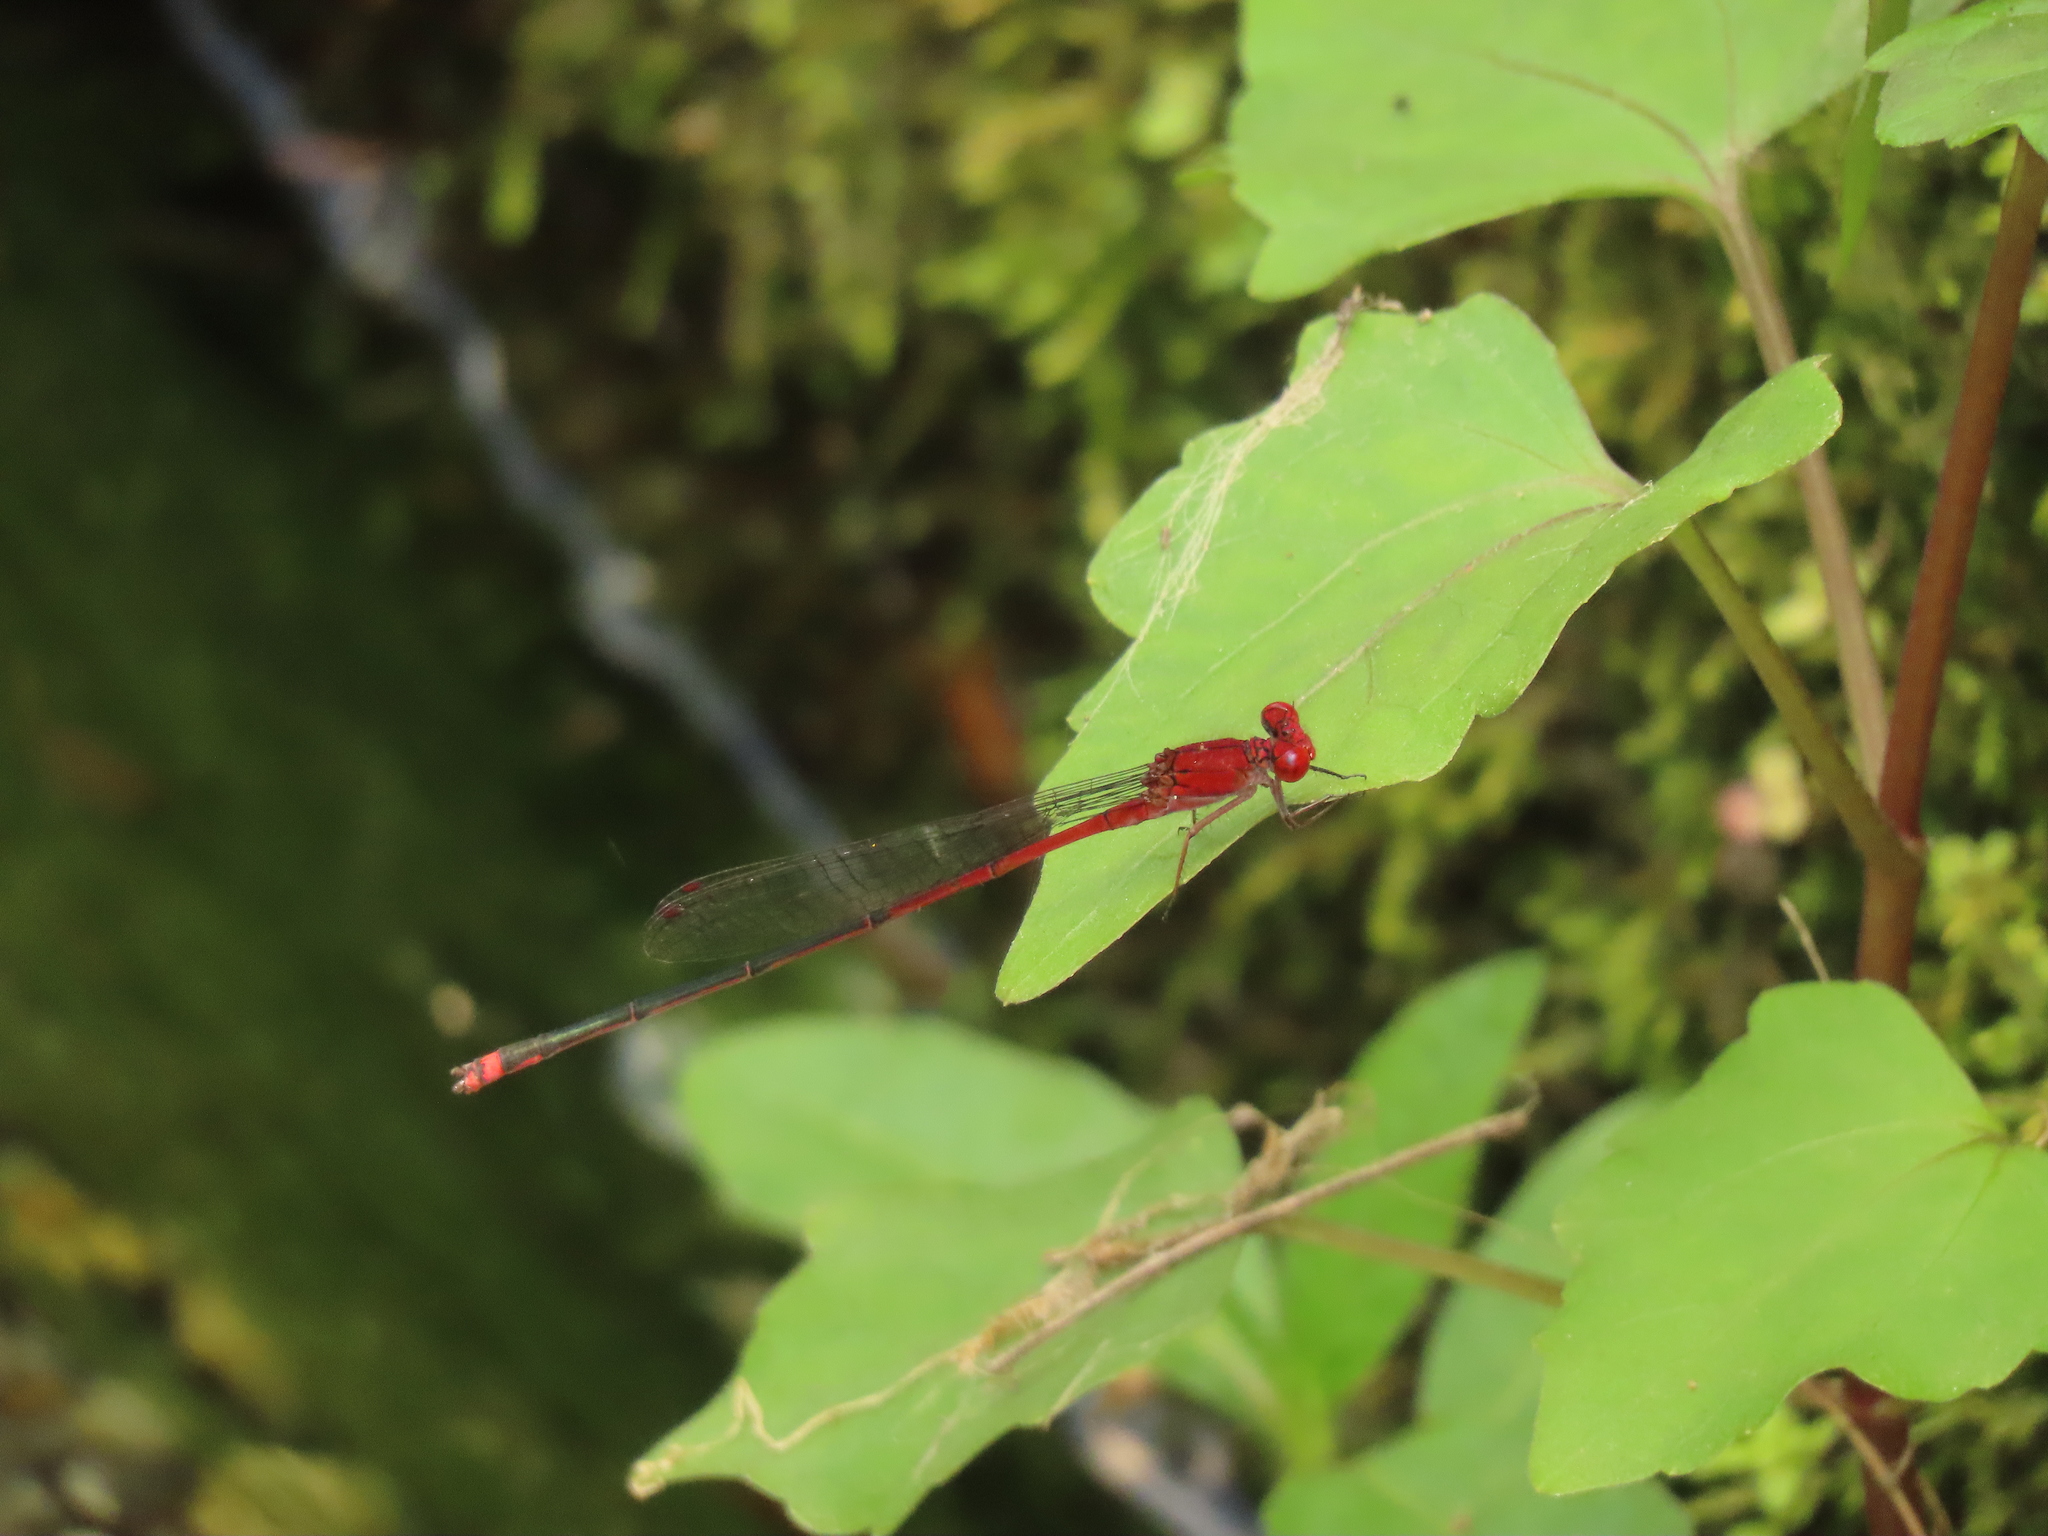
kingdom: Animalia
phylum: Arthropoda
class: Insecta
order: Odonata
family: Coenagrionidae
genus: Pseudagrion
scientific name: Pseudagrion pilidorsum
